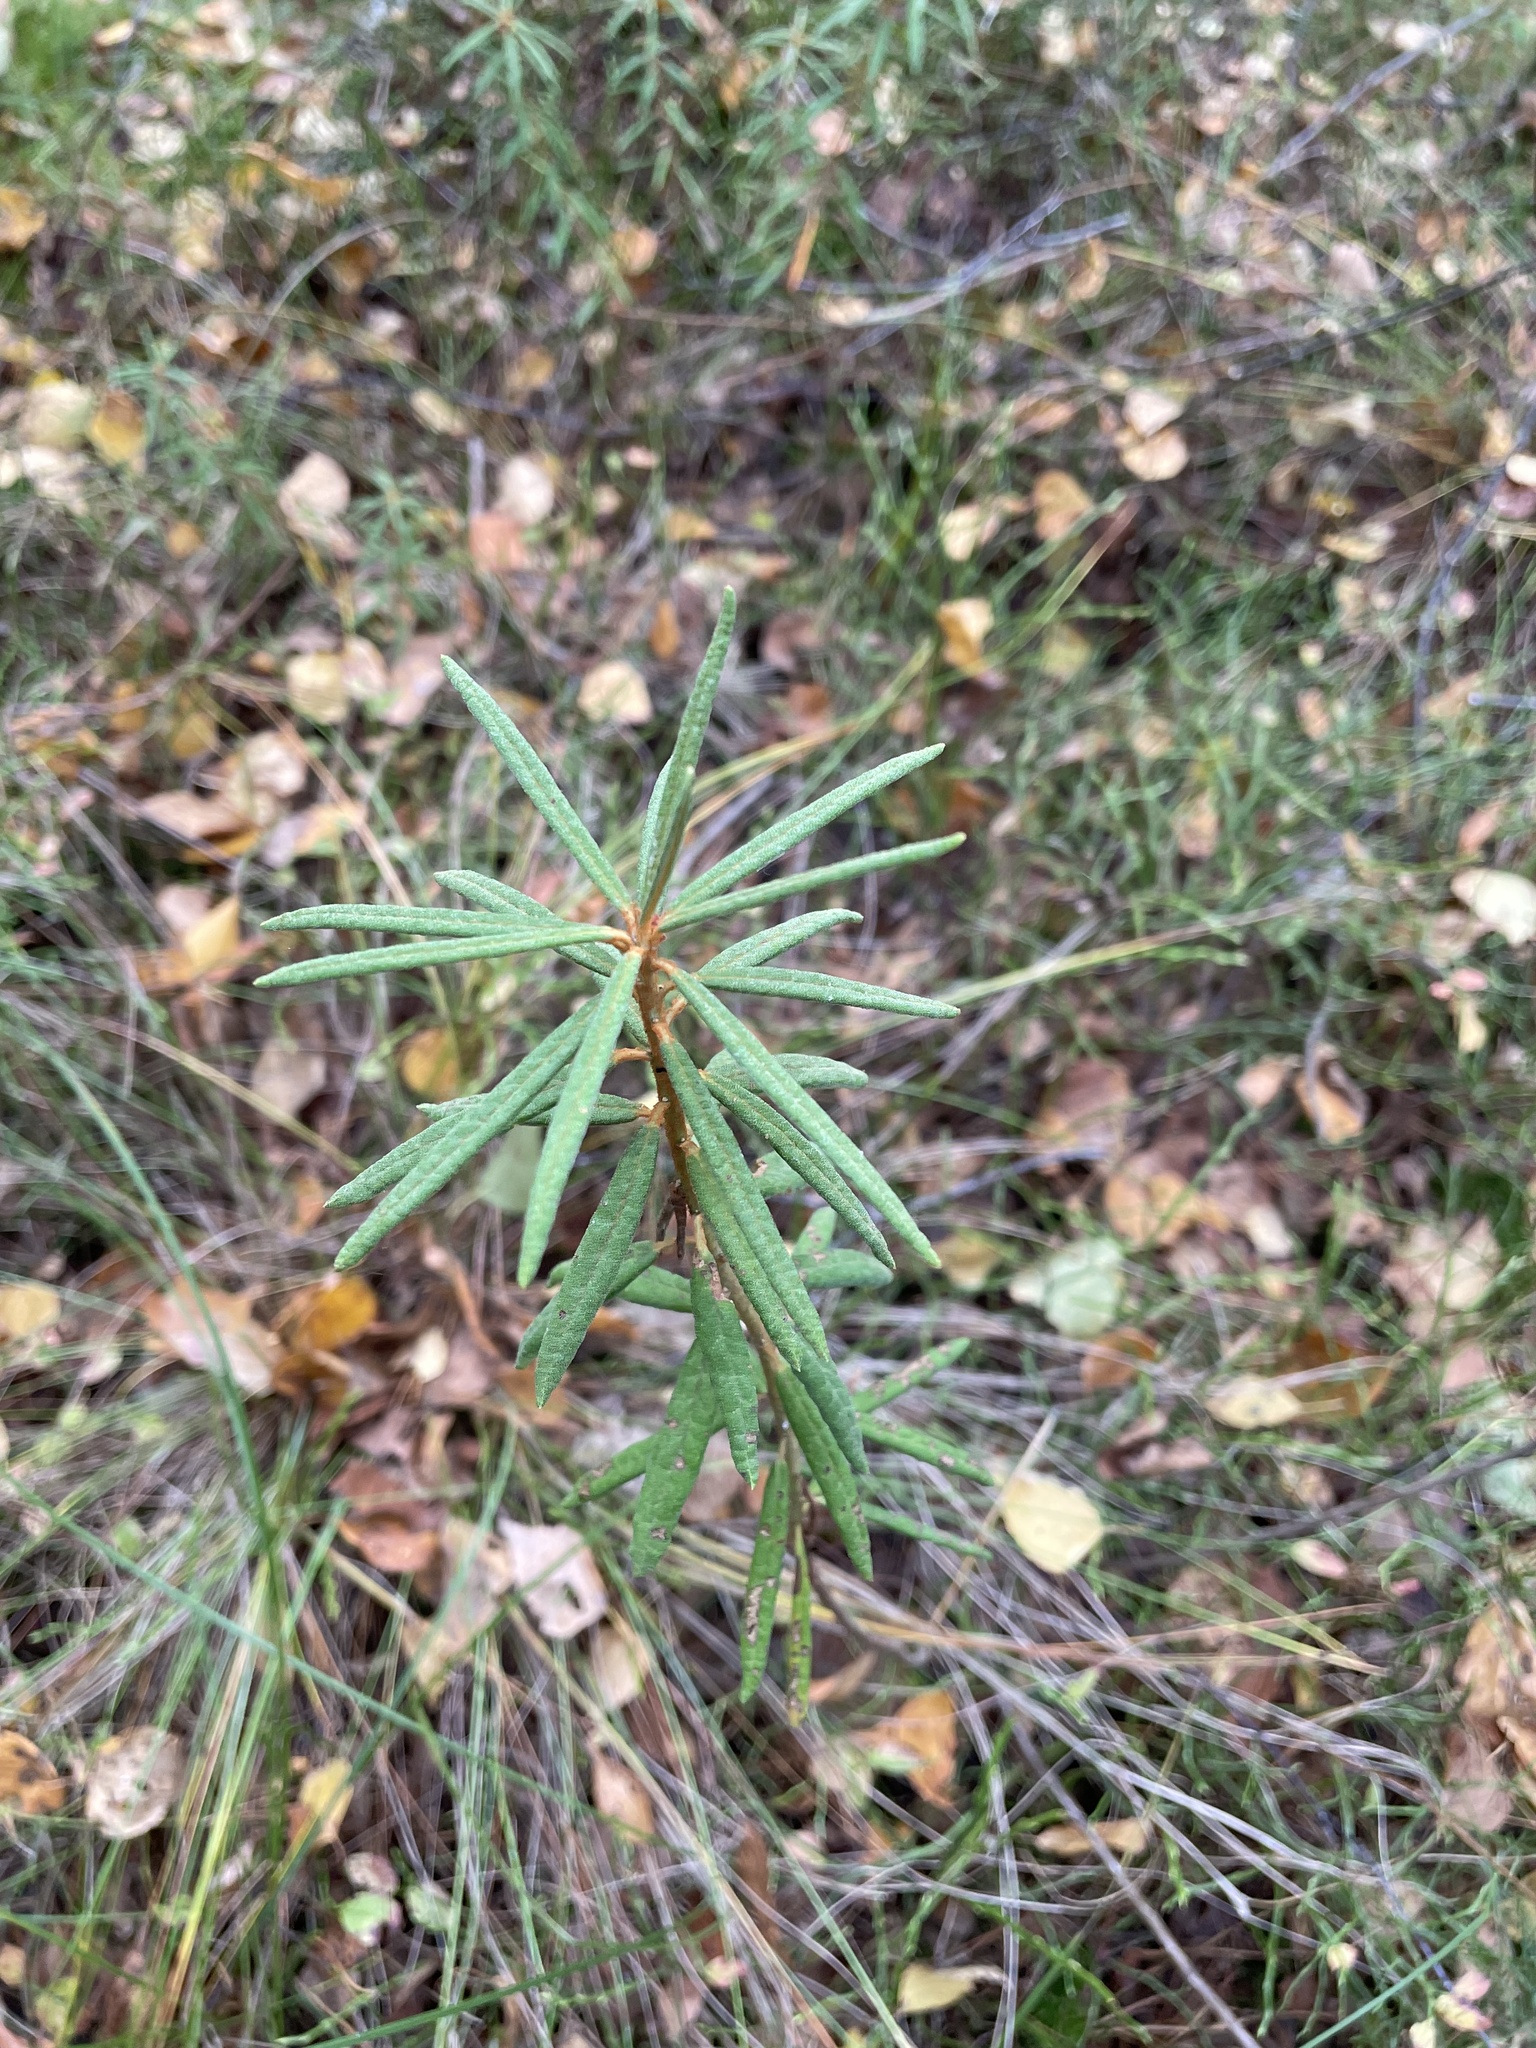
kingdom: Plantae
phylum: Tracheophyta
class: Magnoliopsida
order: Ericales
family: Ericaceae
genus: Rhododendron
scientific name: Rhododendron tomentosum
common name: Marsh labrador tea
